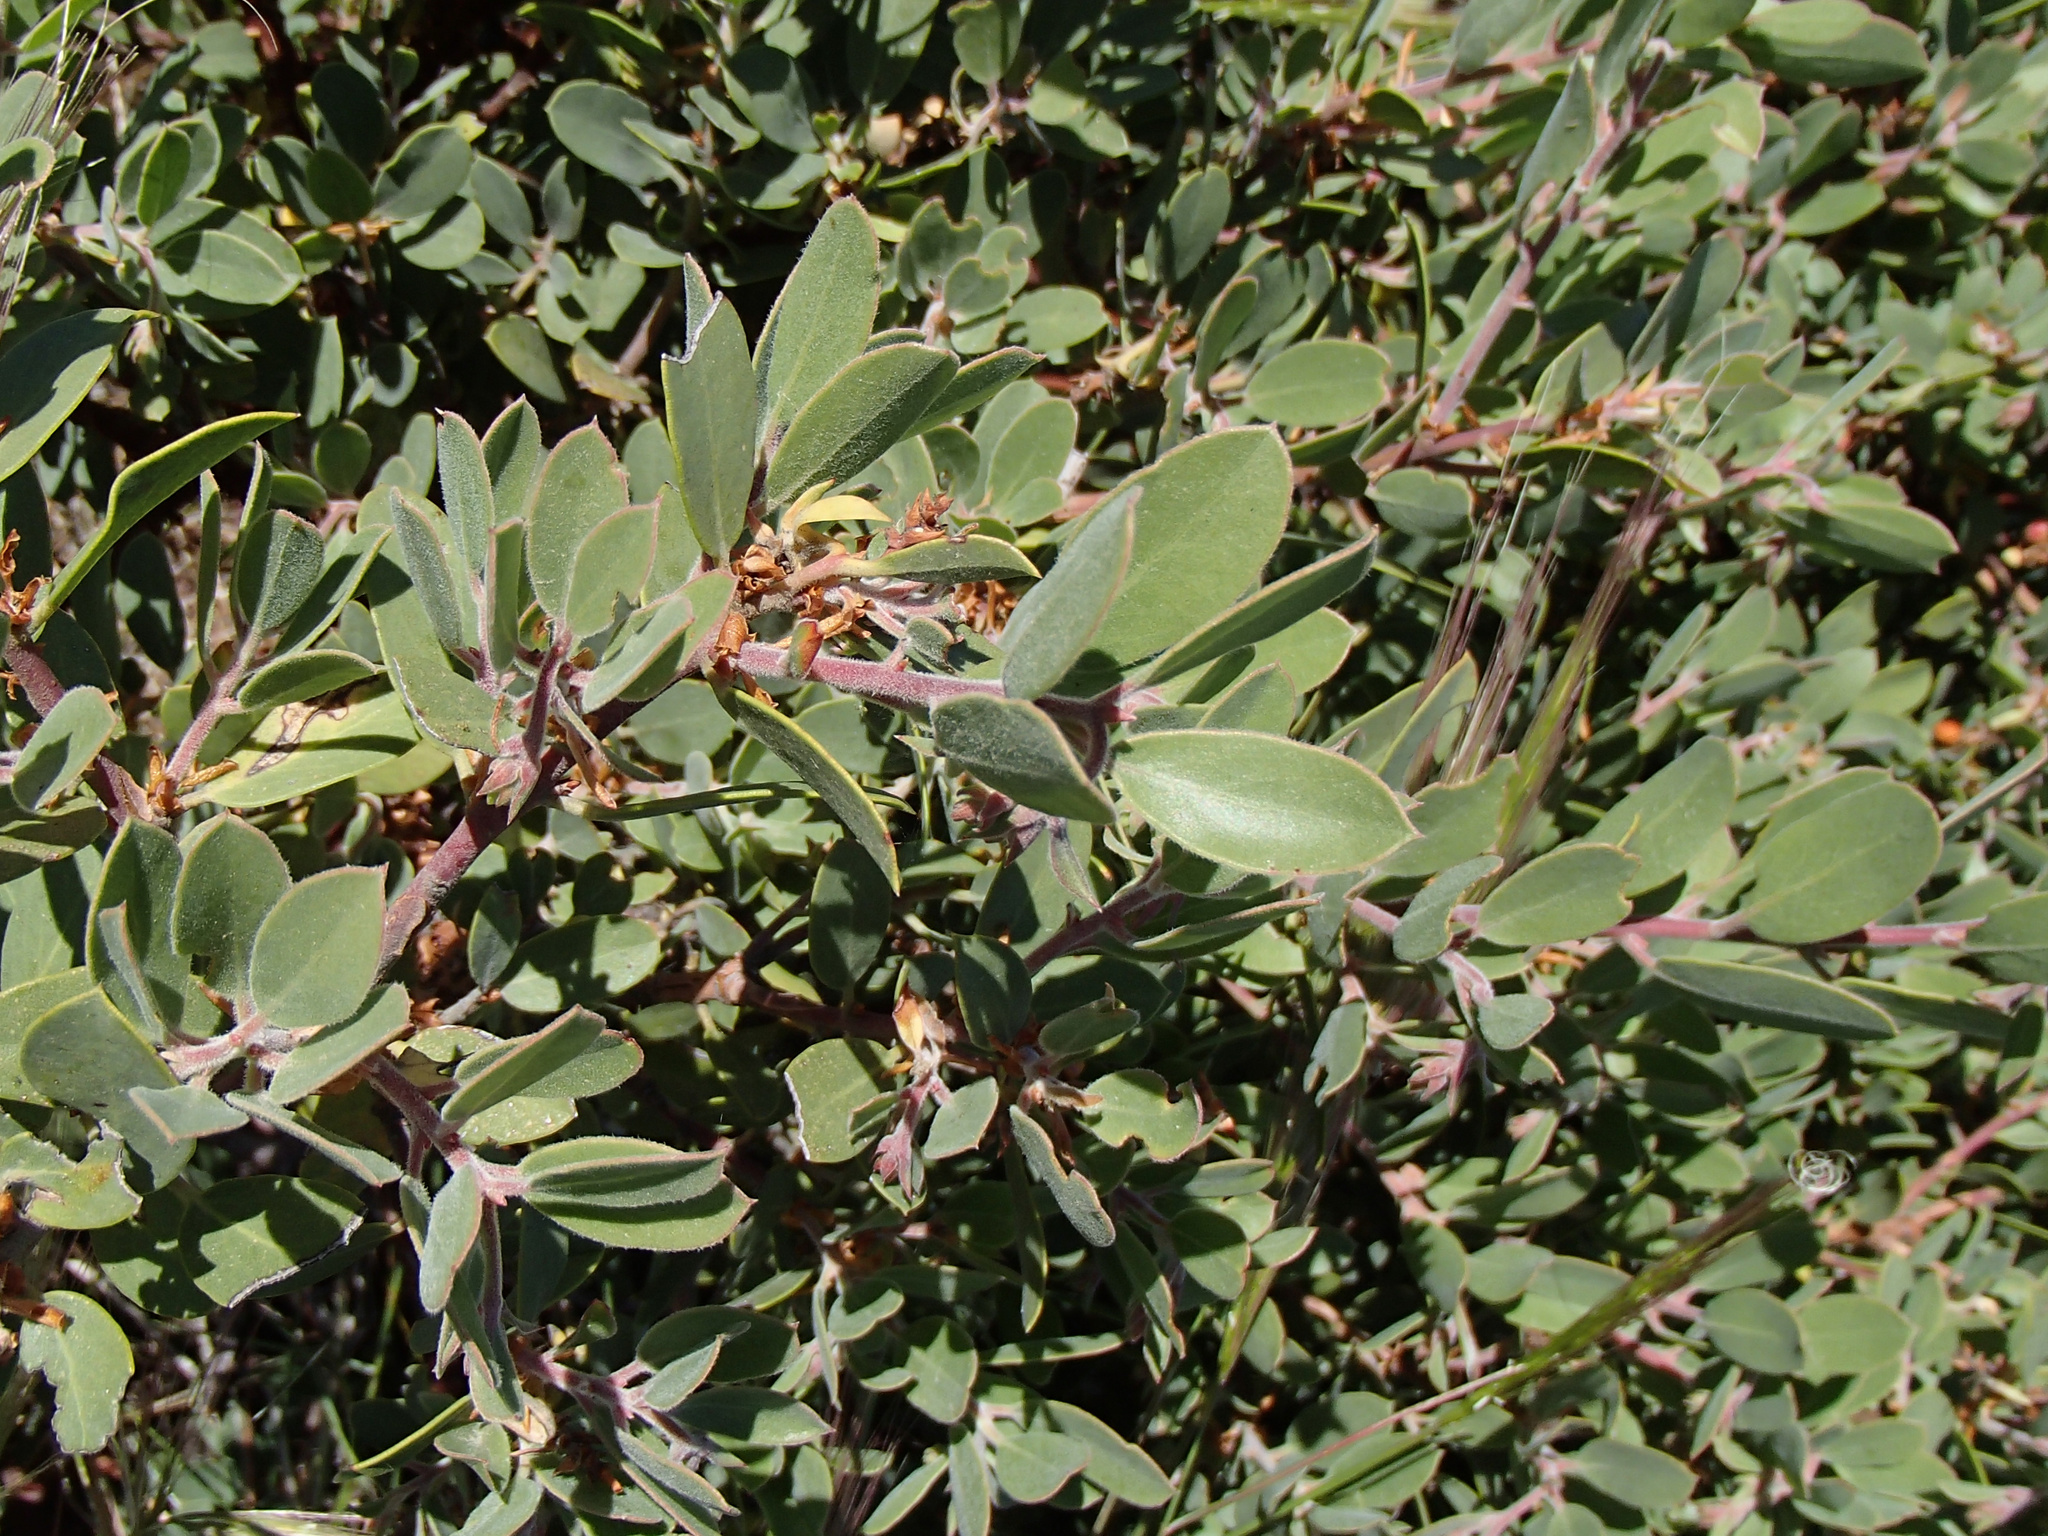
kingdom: Plantae
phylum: Tracheophyta
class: Magnoliopsida
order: Ericales
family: Ericaceae
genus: Arctostaphylos
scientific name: Arctostaphylos nevadensis
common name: Pinemat manzanita
